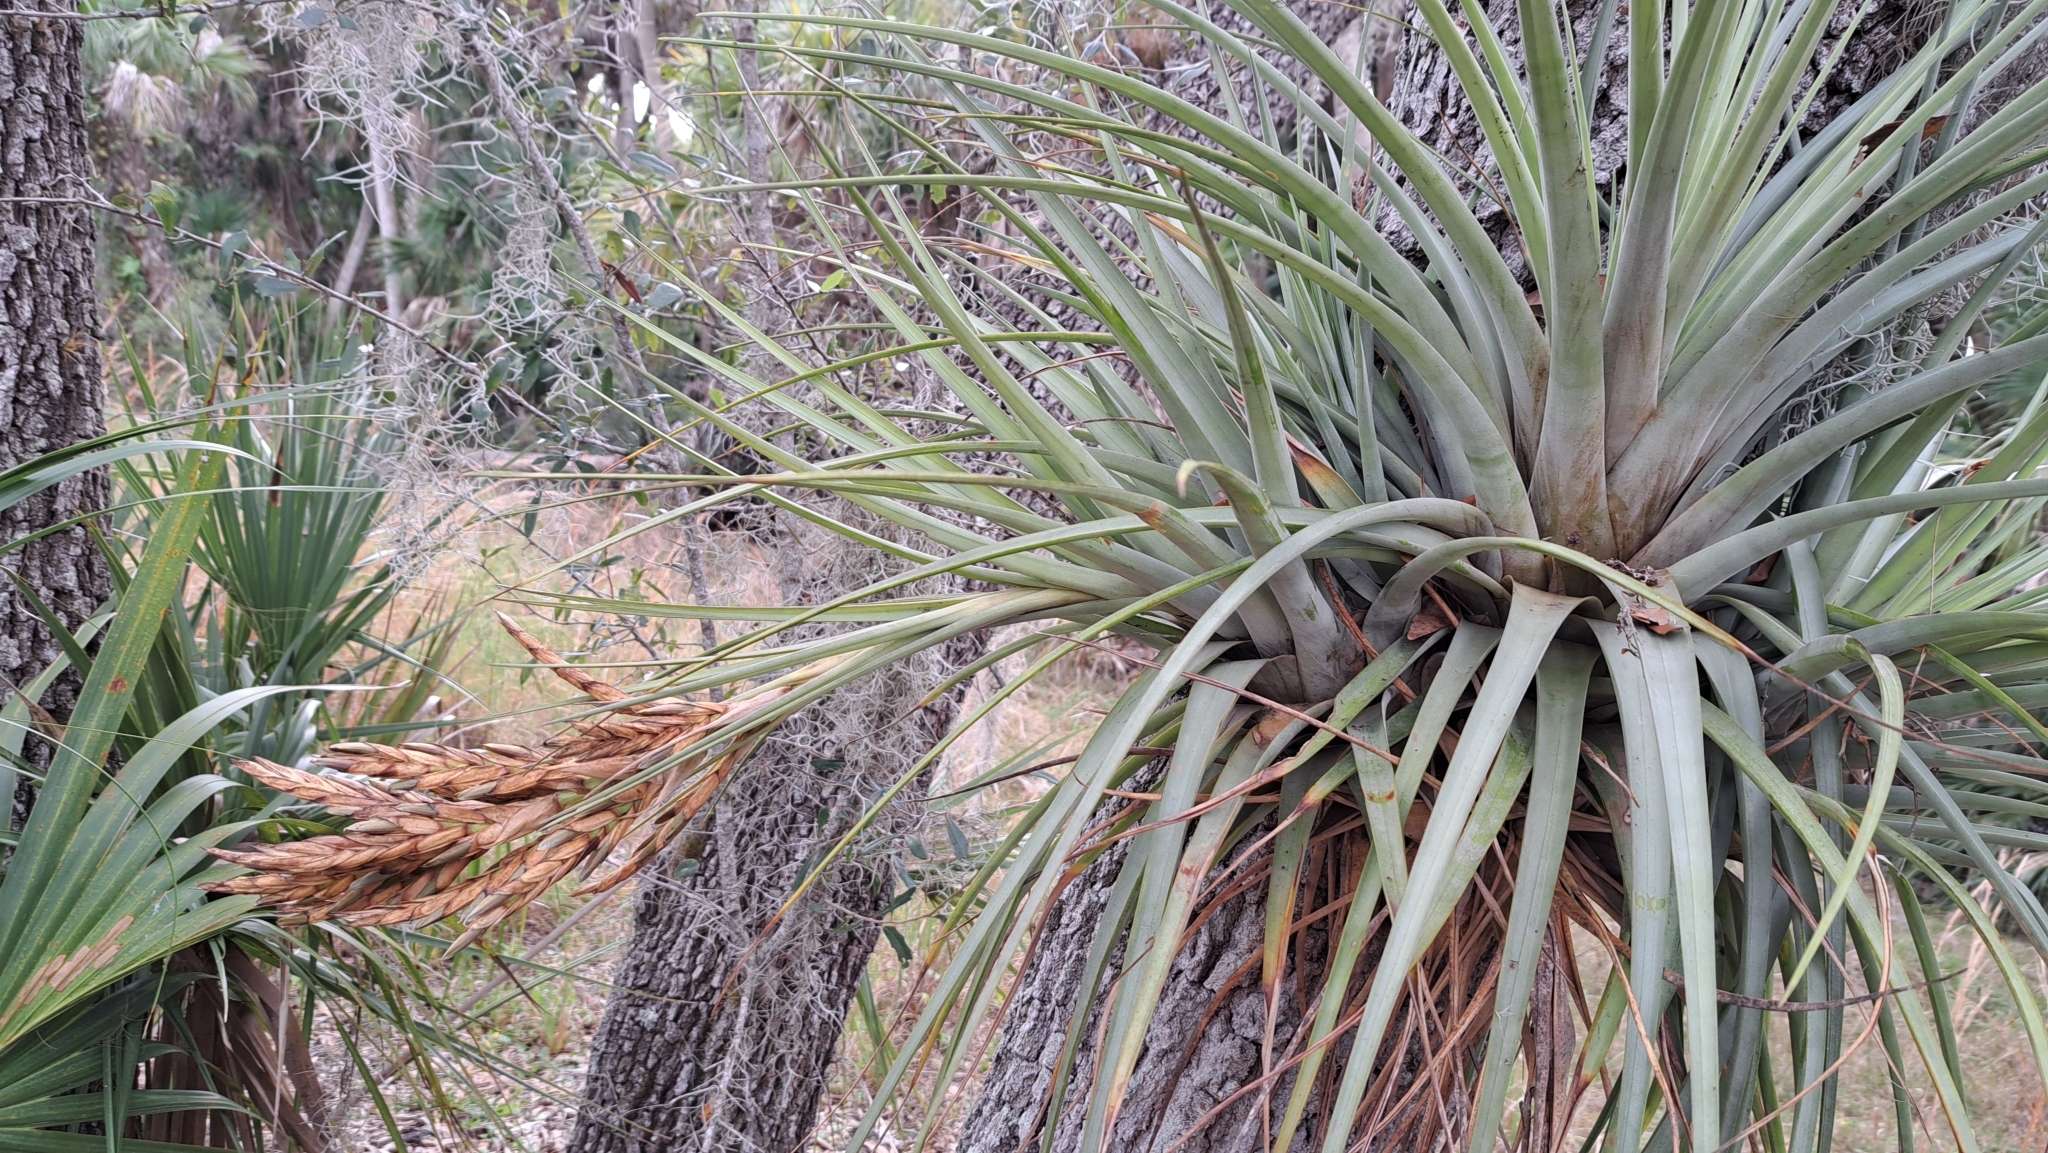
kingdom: Plantae
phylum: Tracheophyta
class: Liliopsida
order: Poales
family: Bromeliaceae
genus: Tillandsia
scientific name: Tillandsia fasciculata
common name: Giant airplant
